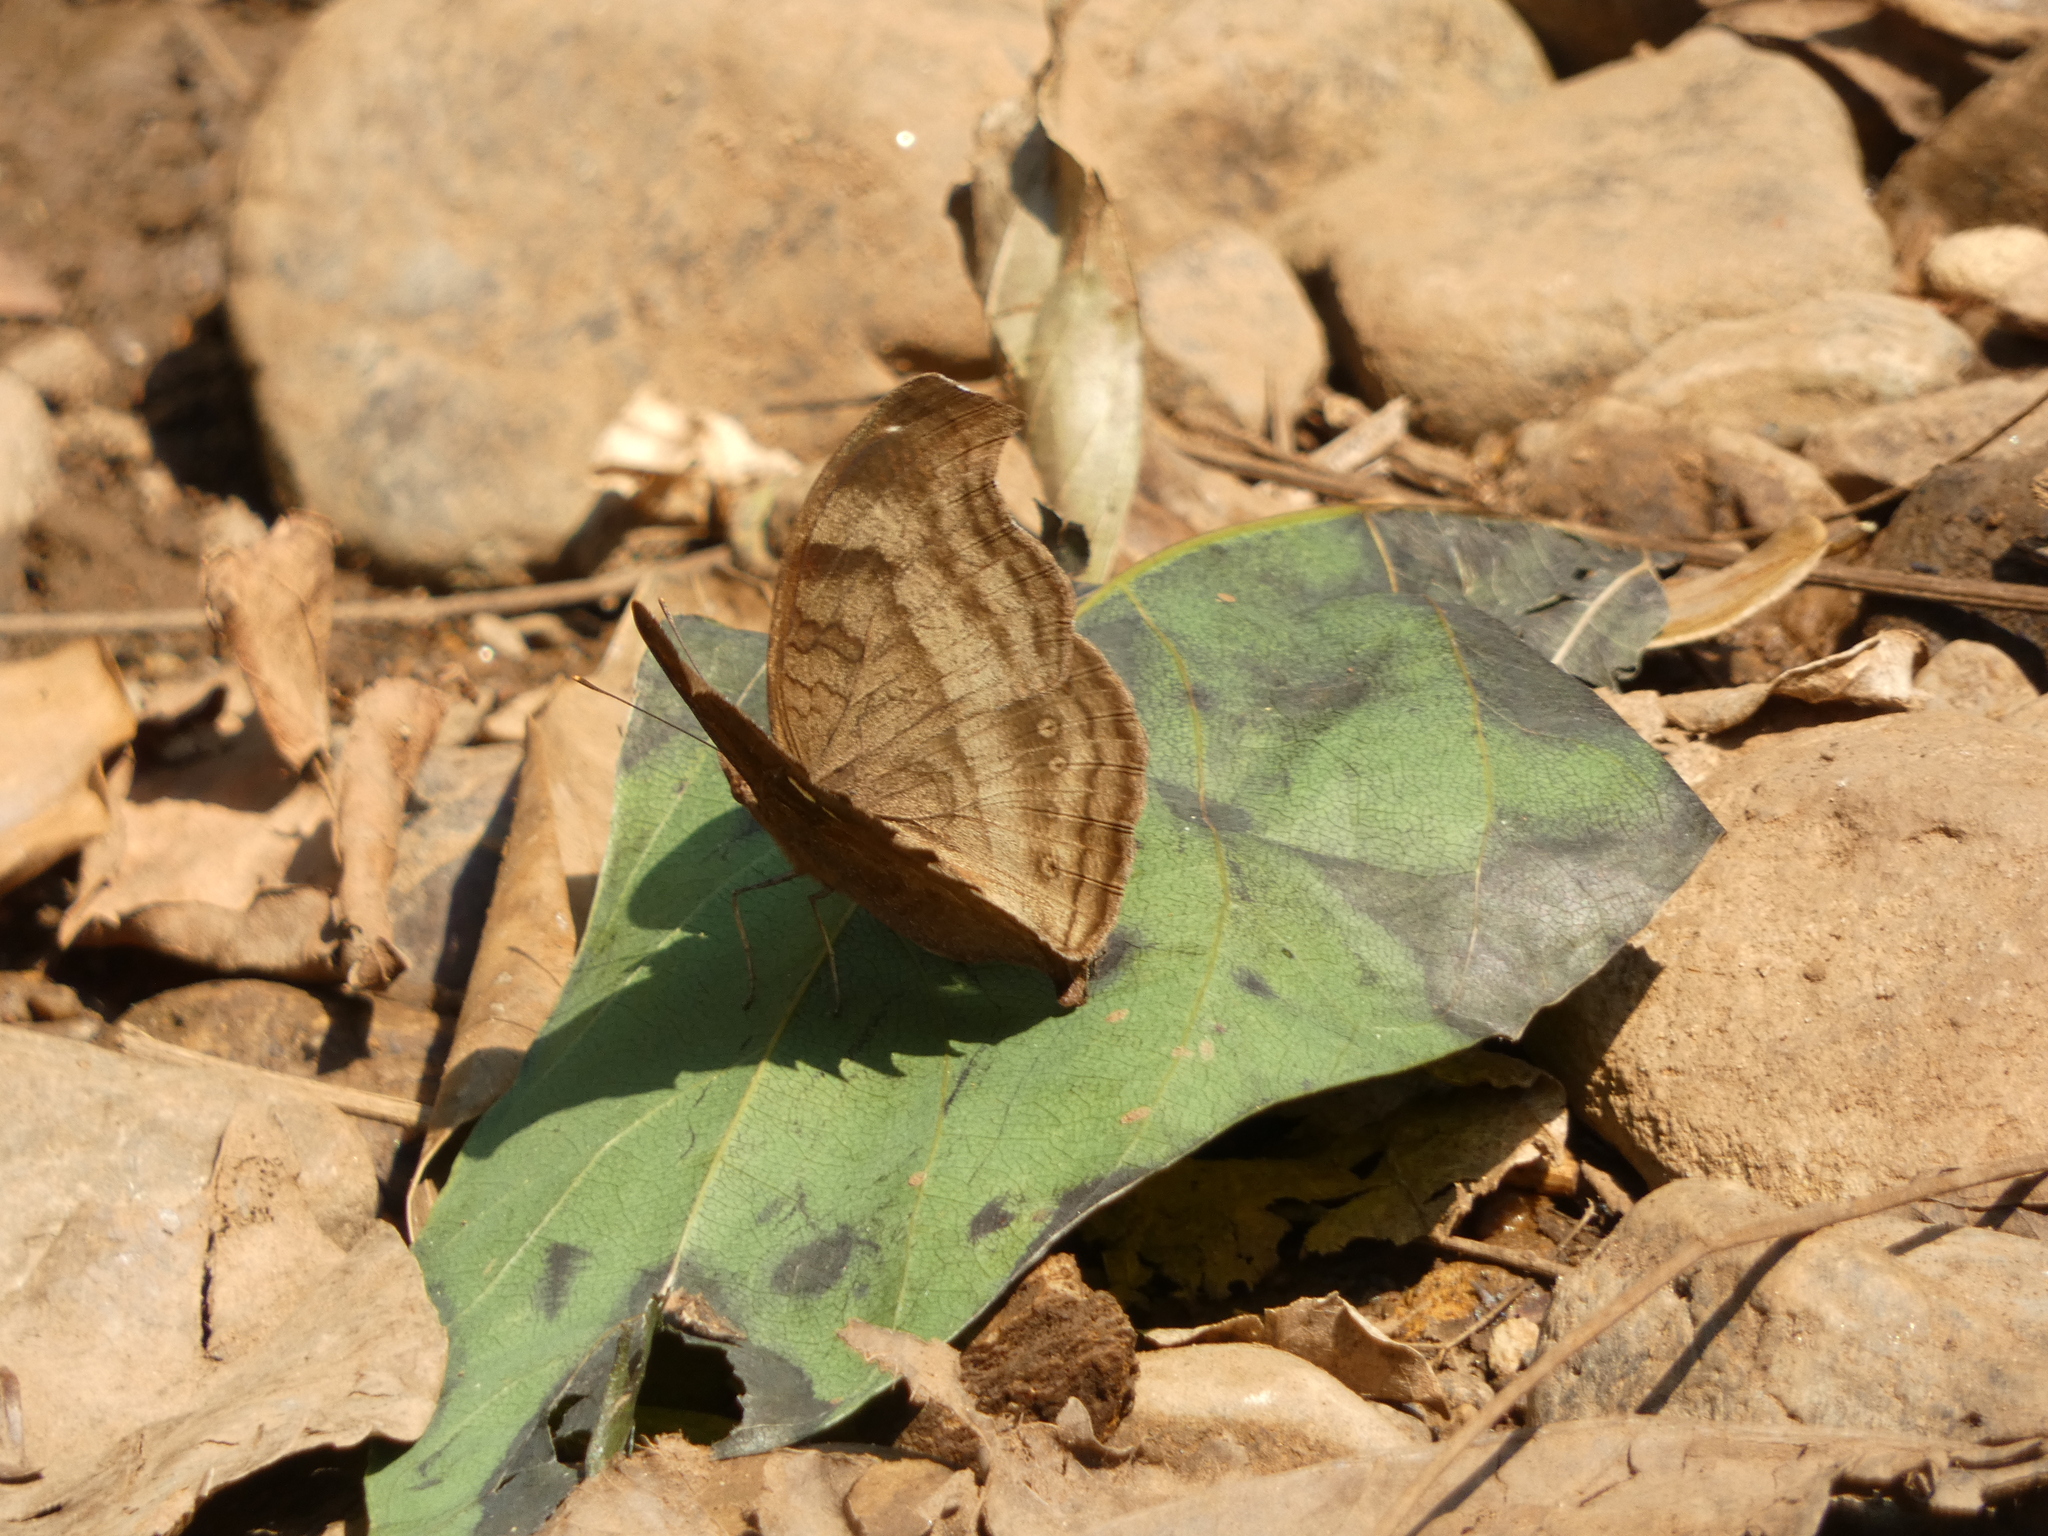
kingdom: Animalia
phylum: Arthropoda
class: Insecta
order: Lepidoptera
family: Nymphalidae
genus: Junonia
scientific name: Junonia iphita
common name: Chocolate pansy
